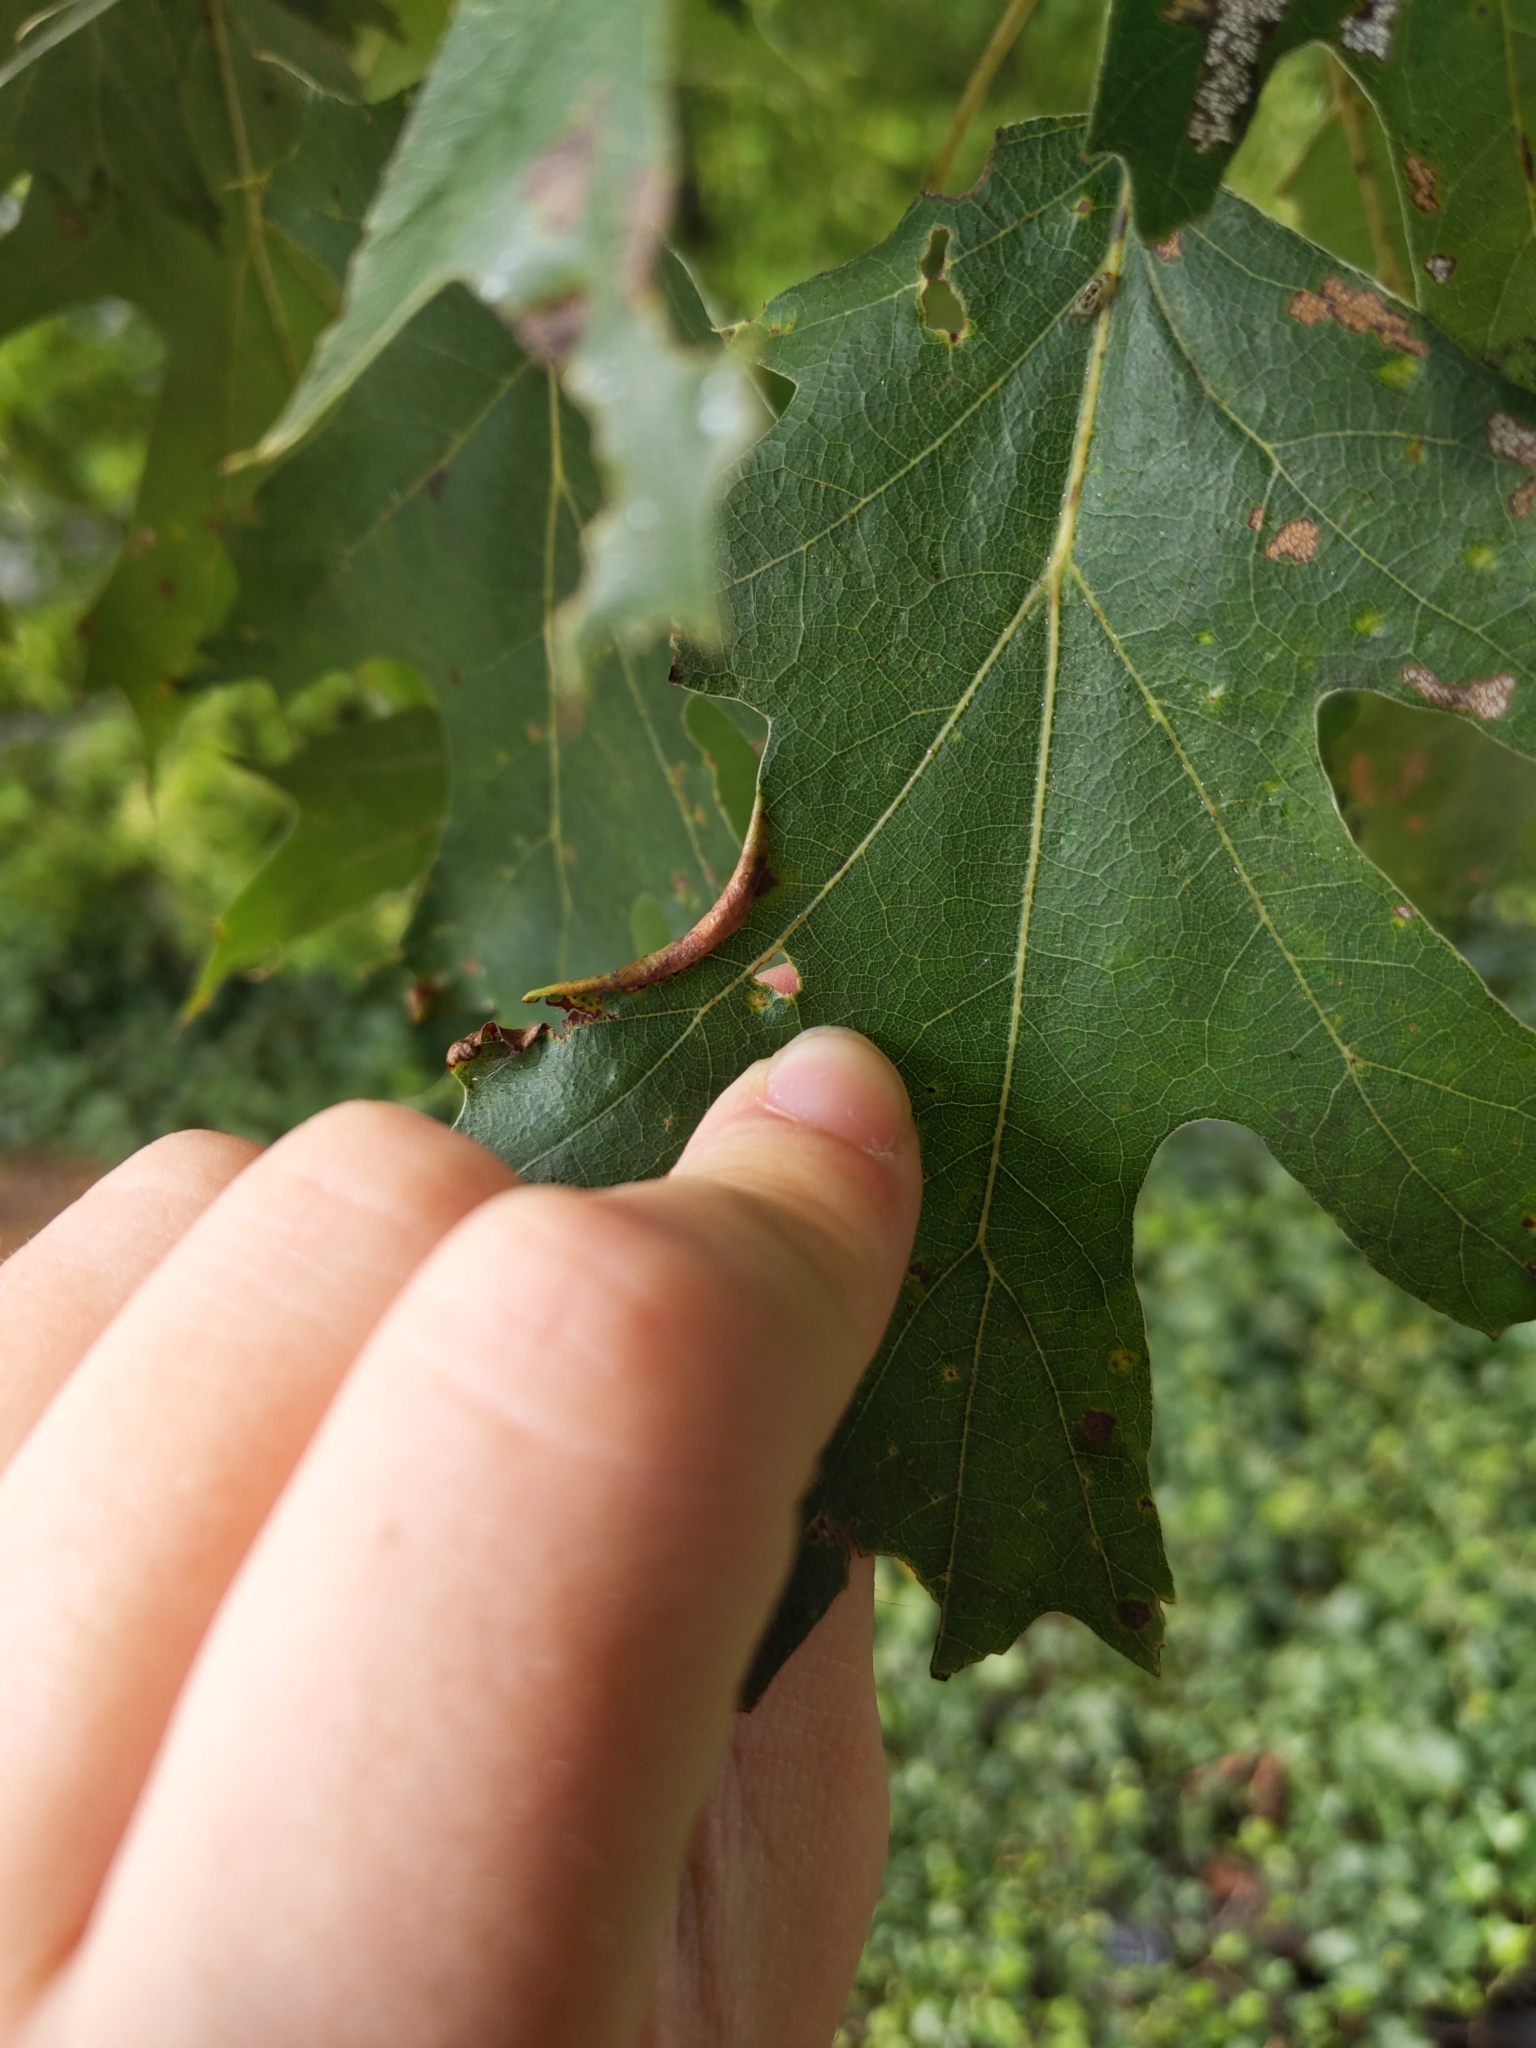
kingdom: Animalia
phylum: Arthropoda
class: Insecta
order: Diptera
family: Cecidomyiidae
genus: Macrodiplosis
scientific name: Macrodiplosis erubescens
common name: Marginal leaf fold gall midge
